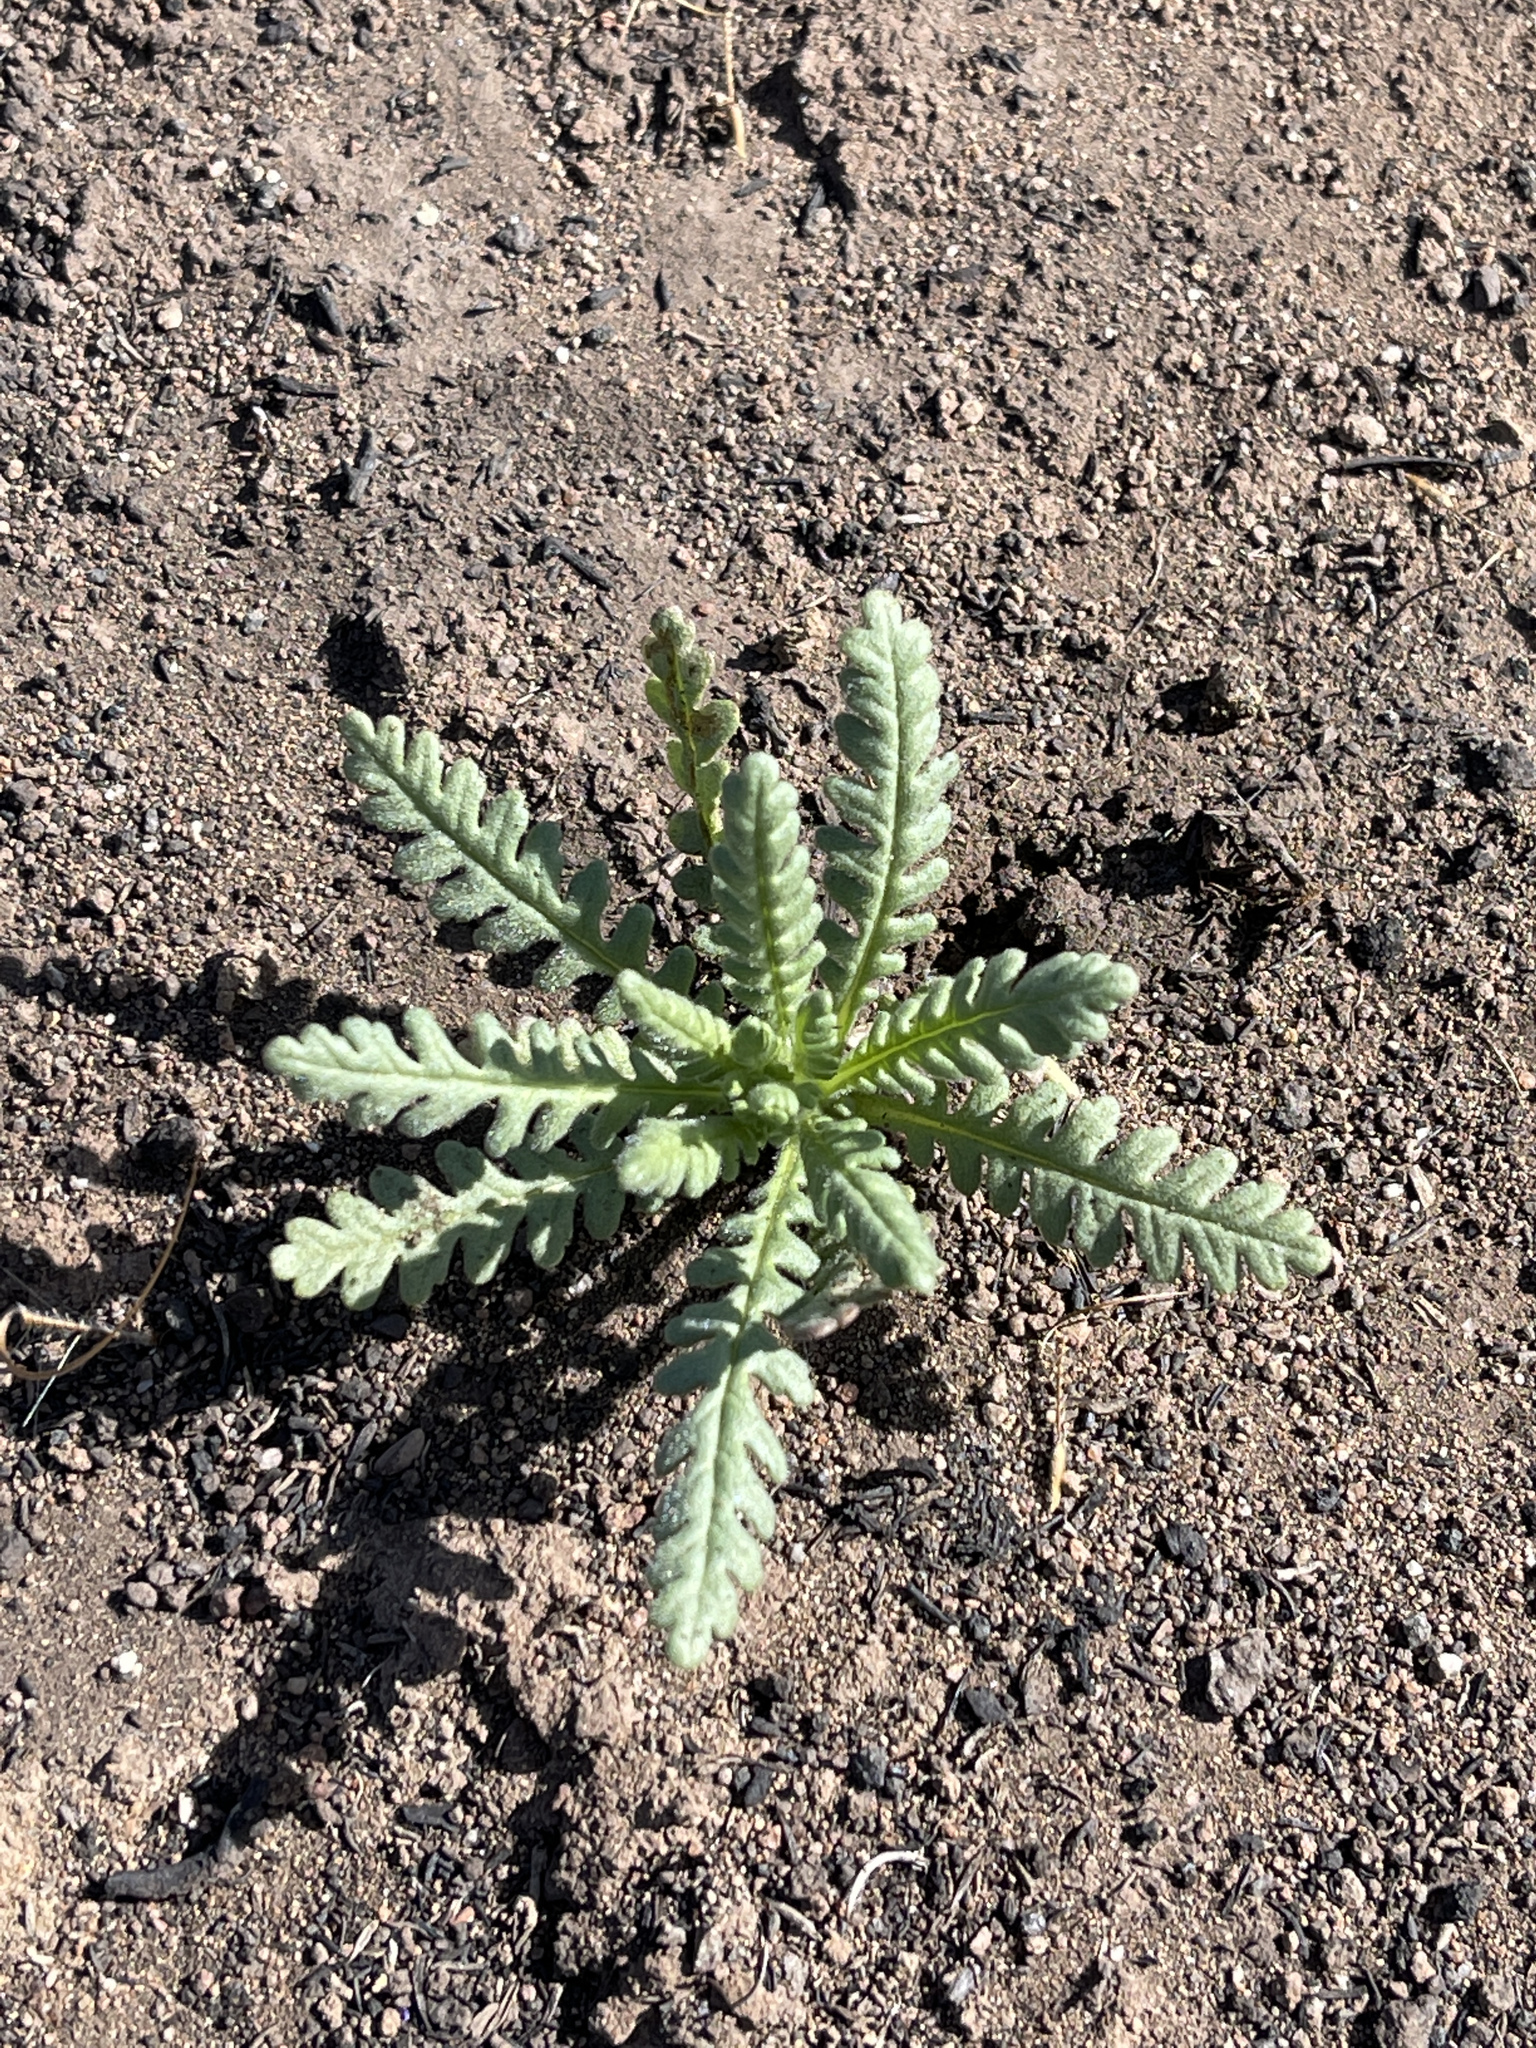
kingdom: Plantae
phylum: Tracheophyta
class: Magnoliopsida
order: Boraginales
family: Hydrophyllaceae
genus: Emmenanthe
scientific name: Emmenanthe penduliflora
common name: Whispering-bells
